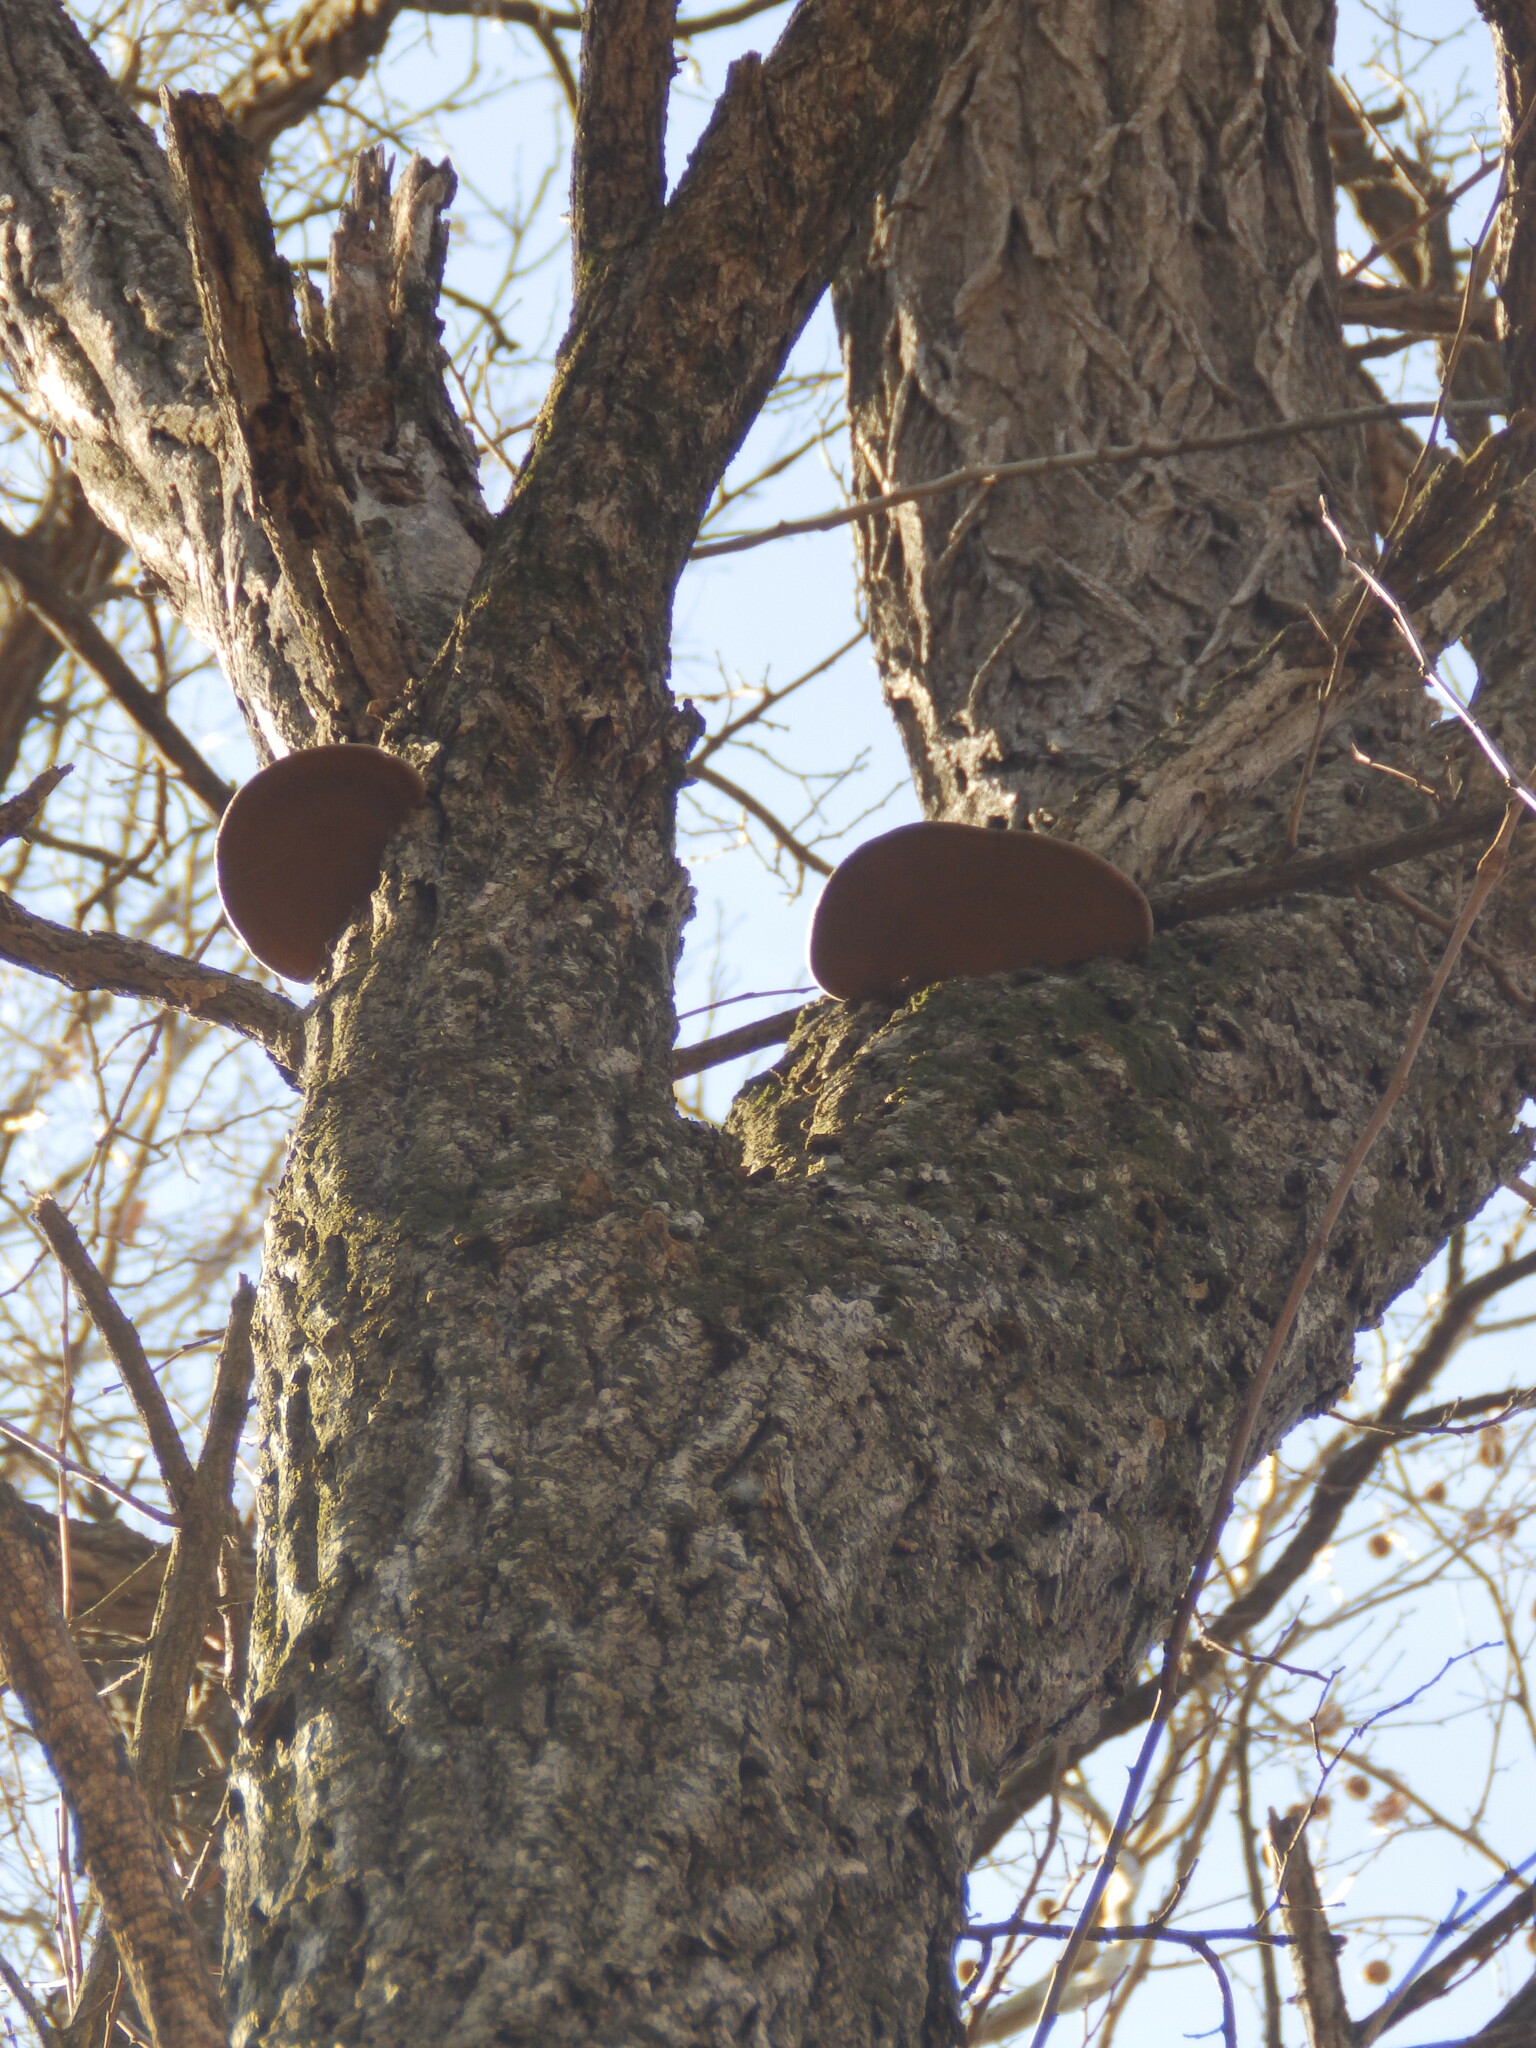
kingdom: Fungi
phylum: Basidiomycota
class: Agaricomycetes
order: Hymenochaetales
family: Hymenochaetaceae
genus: Phellinus
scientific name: Phellinus robiniae
